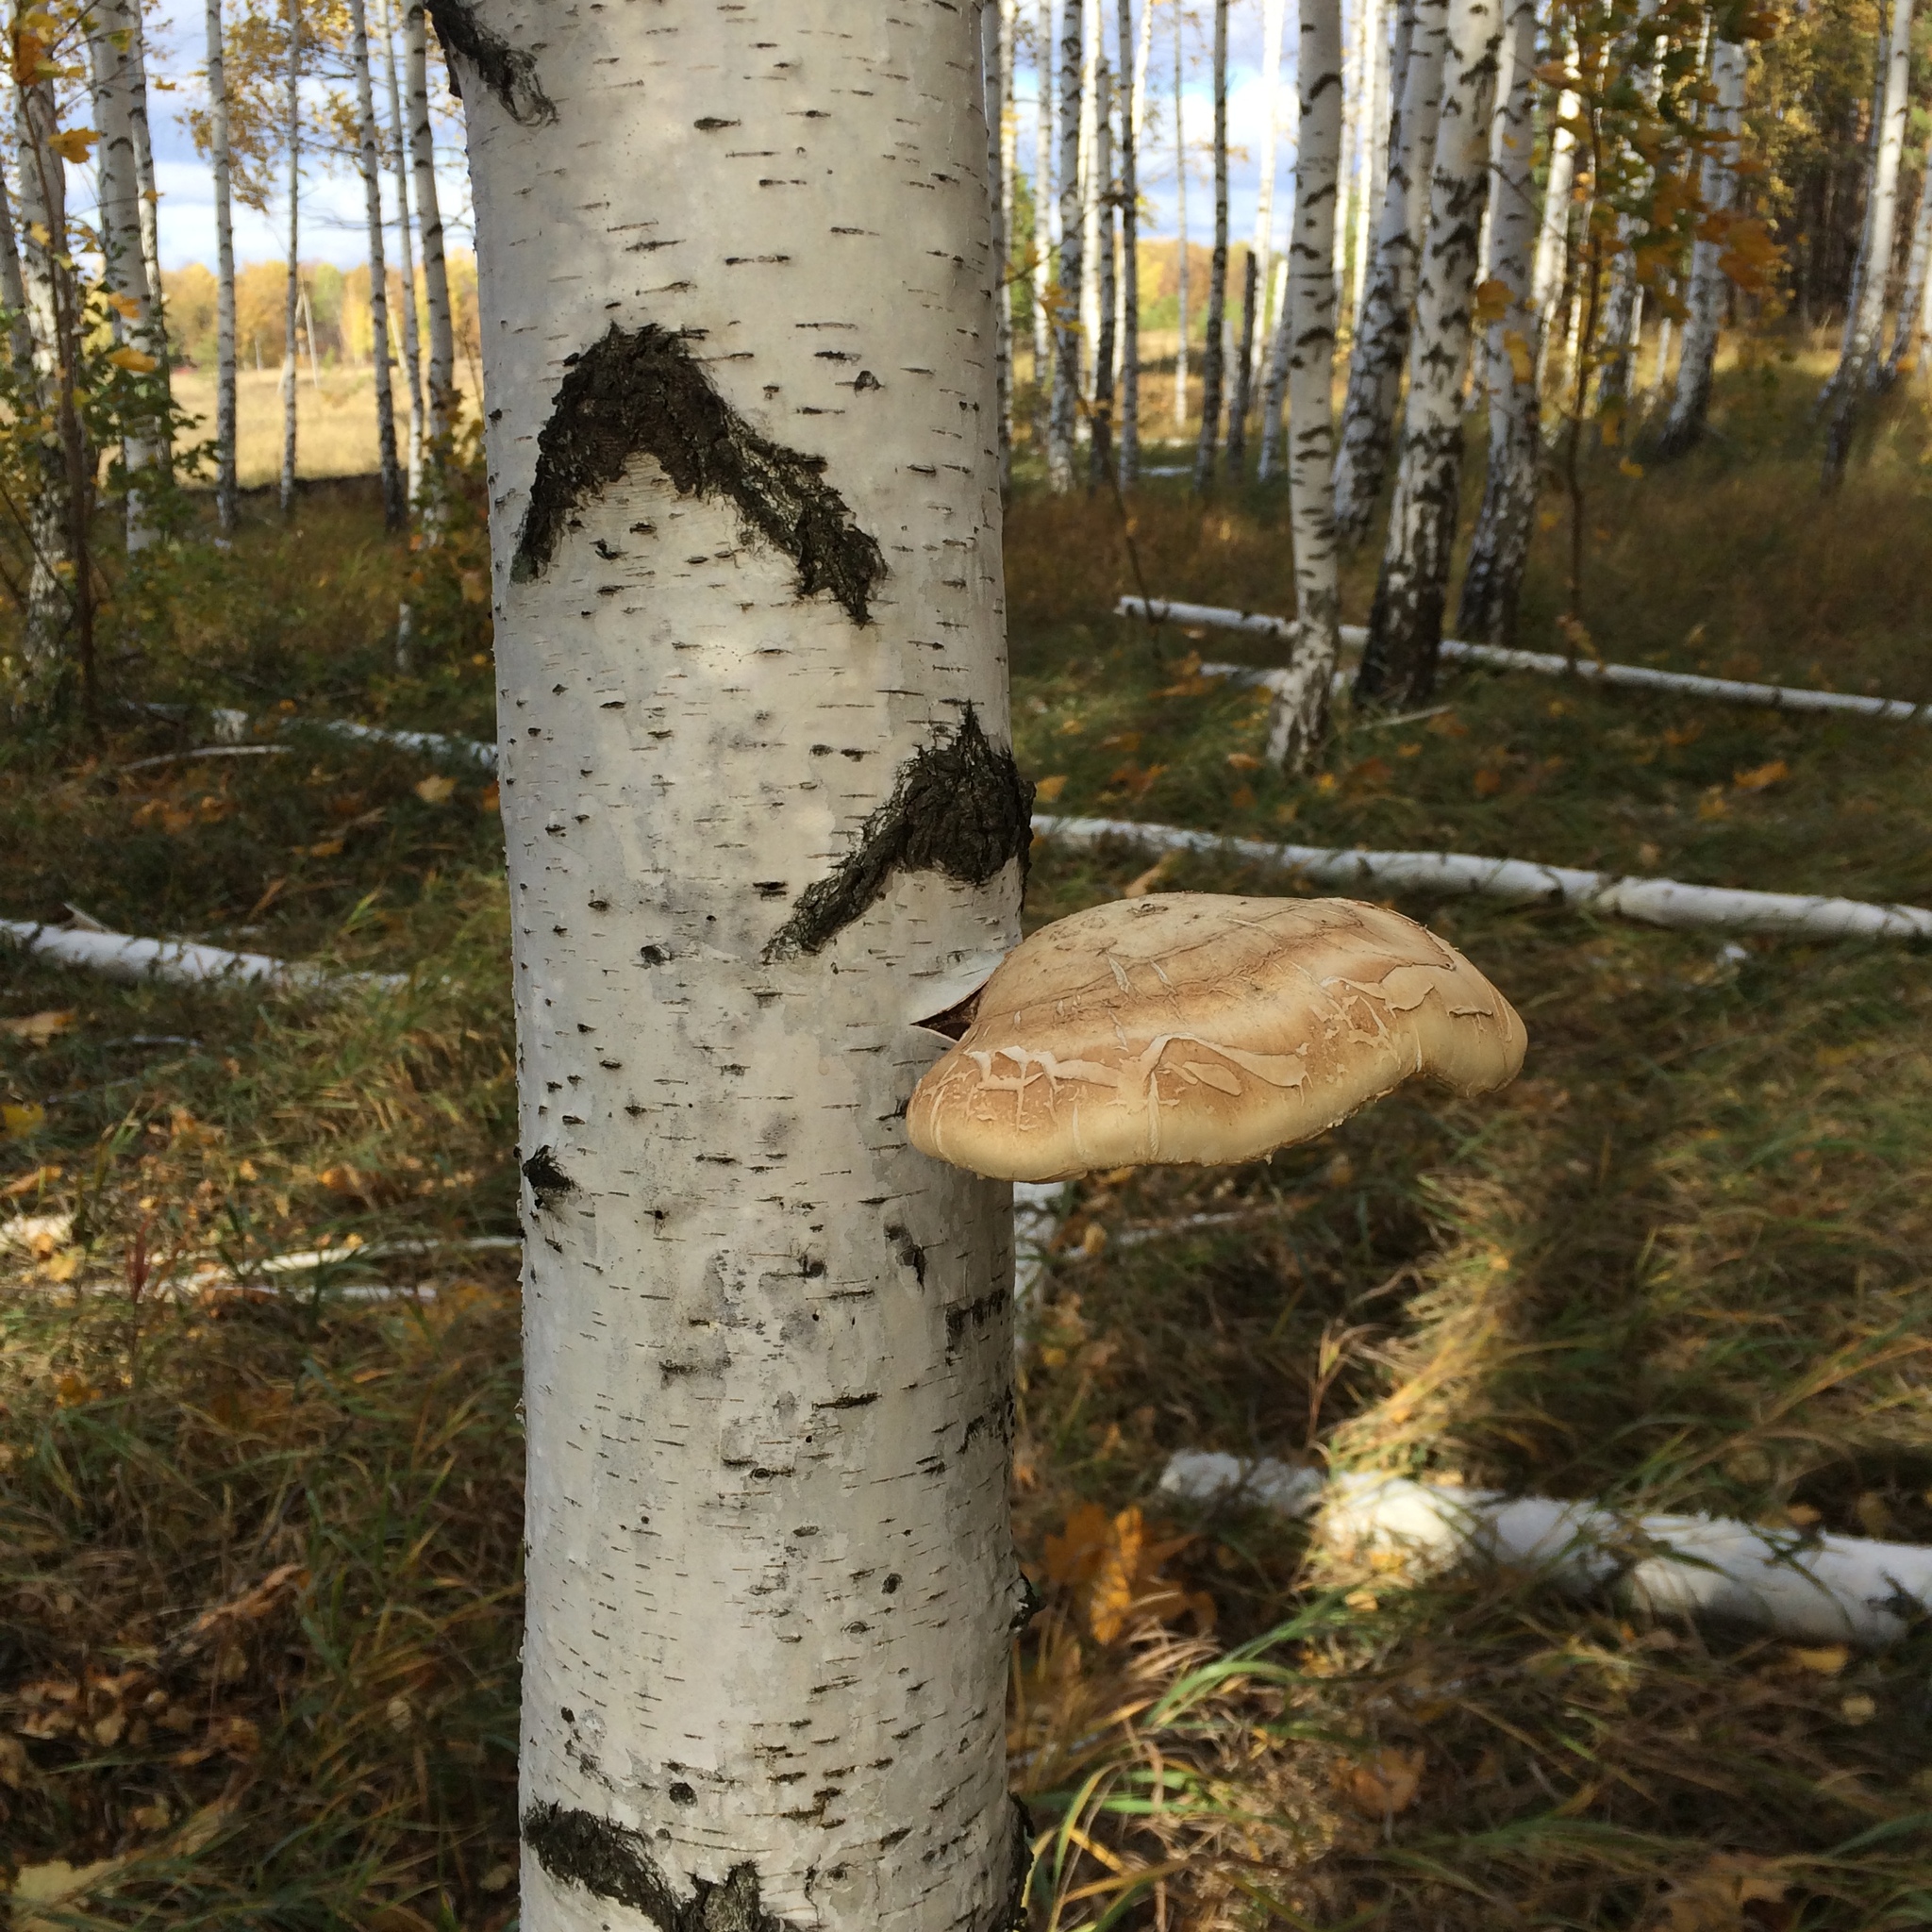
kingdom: Fungi
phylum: Basidiomycota
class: Agaricomycetes
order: Polyporales
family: Fomitopsidaceae
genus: Fomitopsis
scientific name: Fomitopsis betulina
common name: Birch polypore
